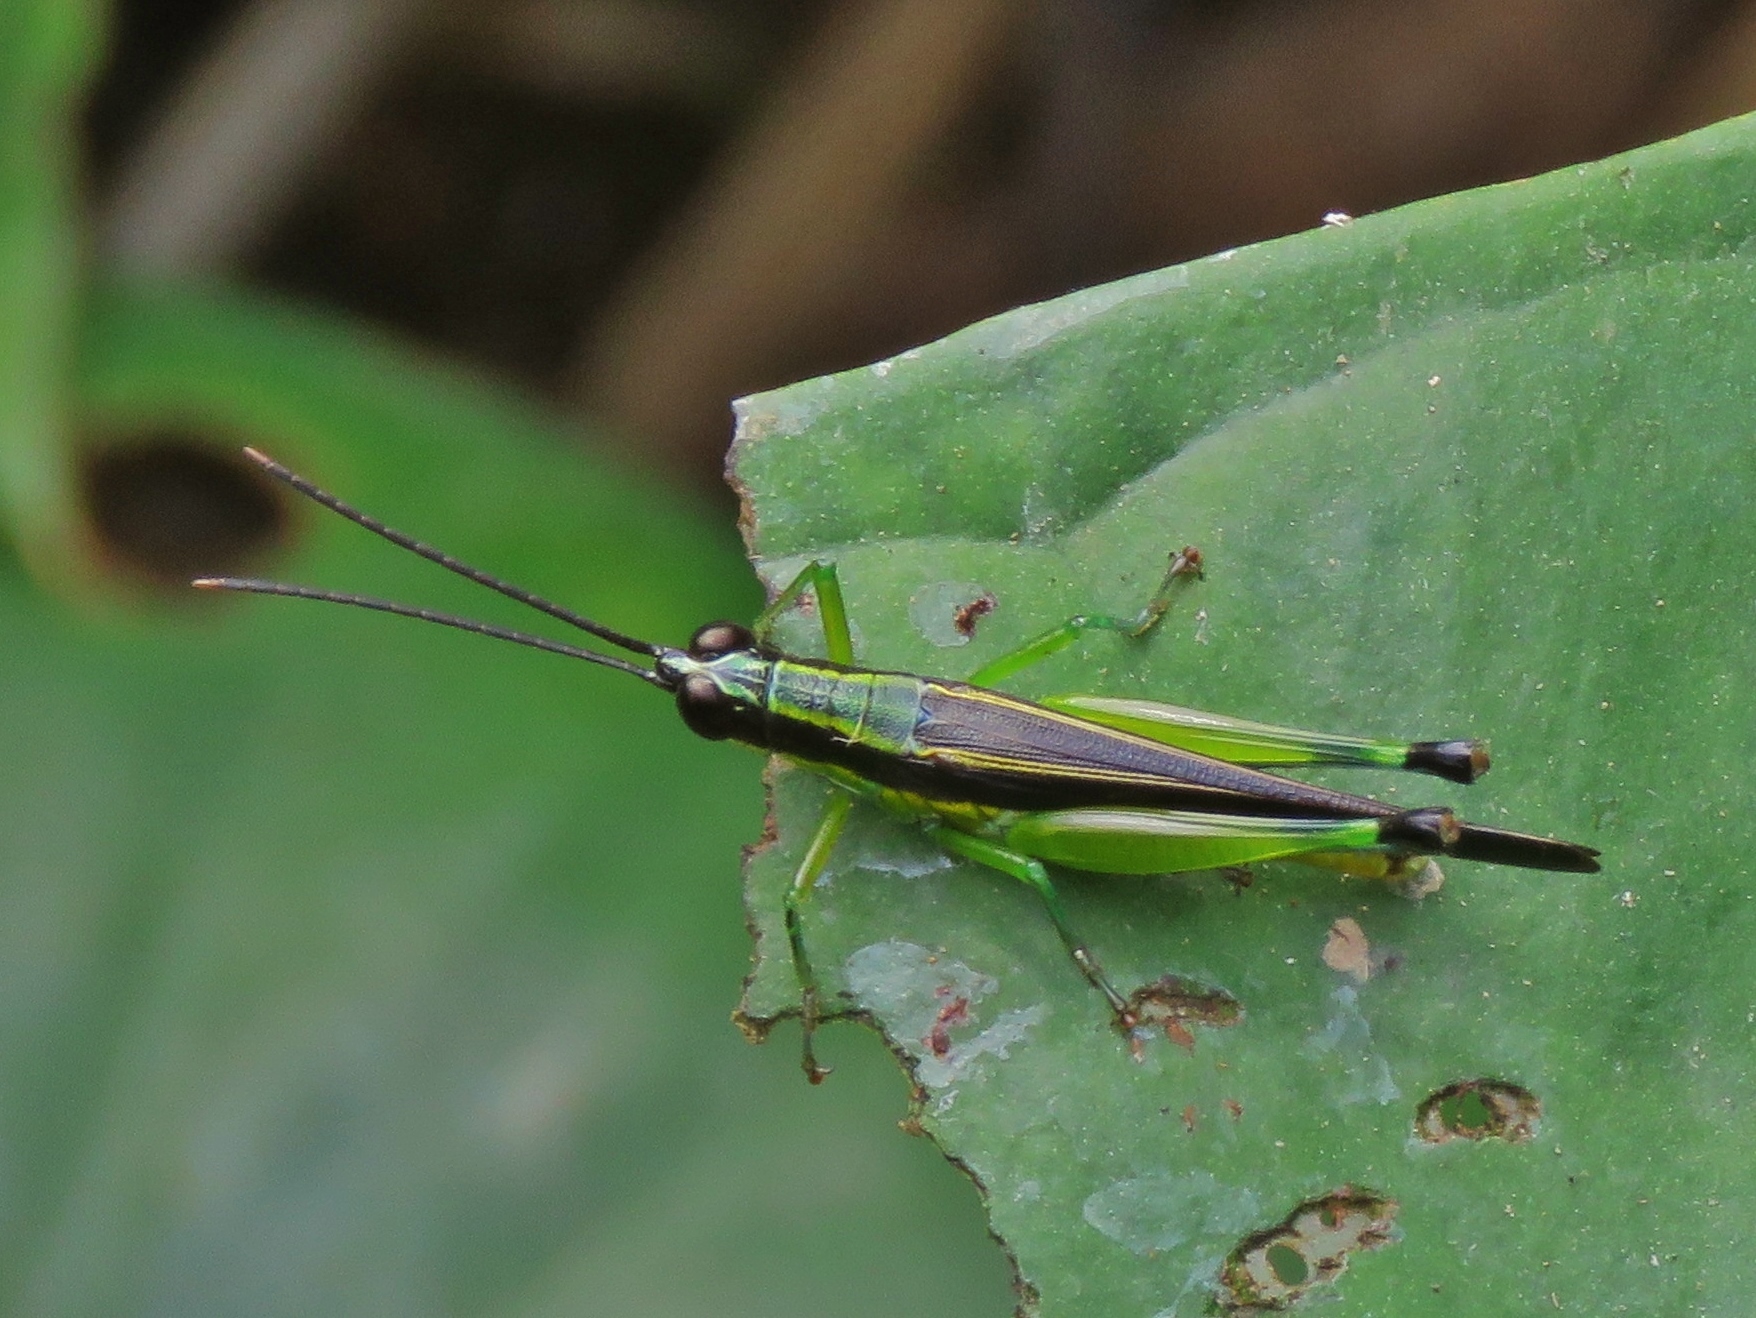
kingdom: Animalia
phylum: Arthropoda
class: Insecta
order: Orthoptera
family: Acrididae
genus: Stenopola
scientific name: Stenopola boliviana
